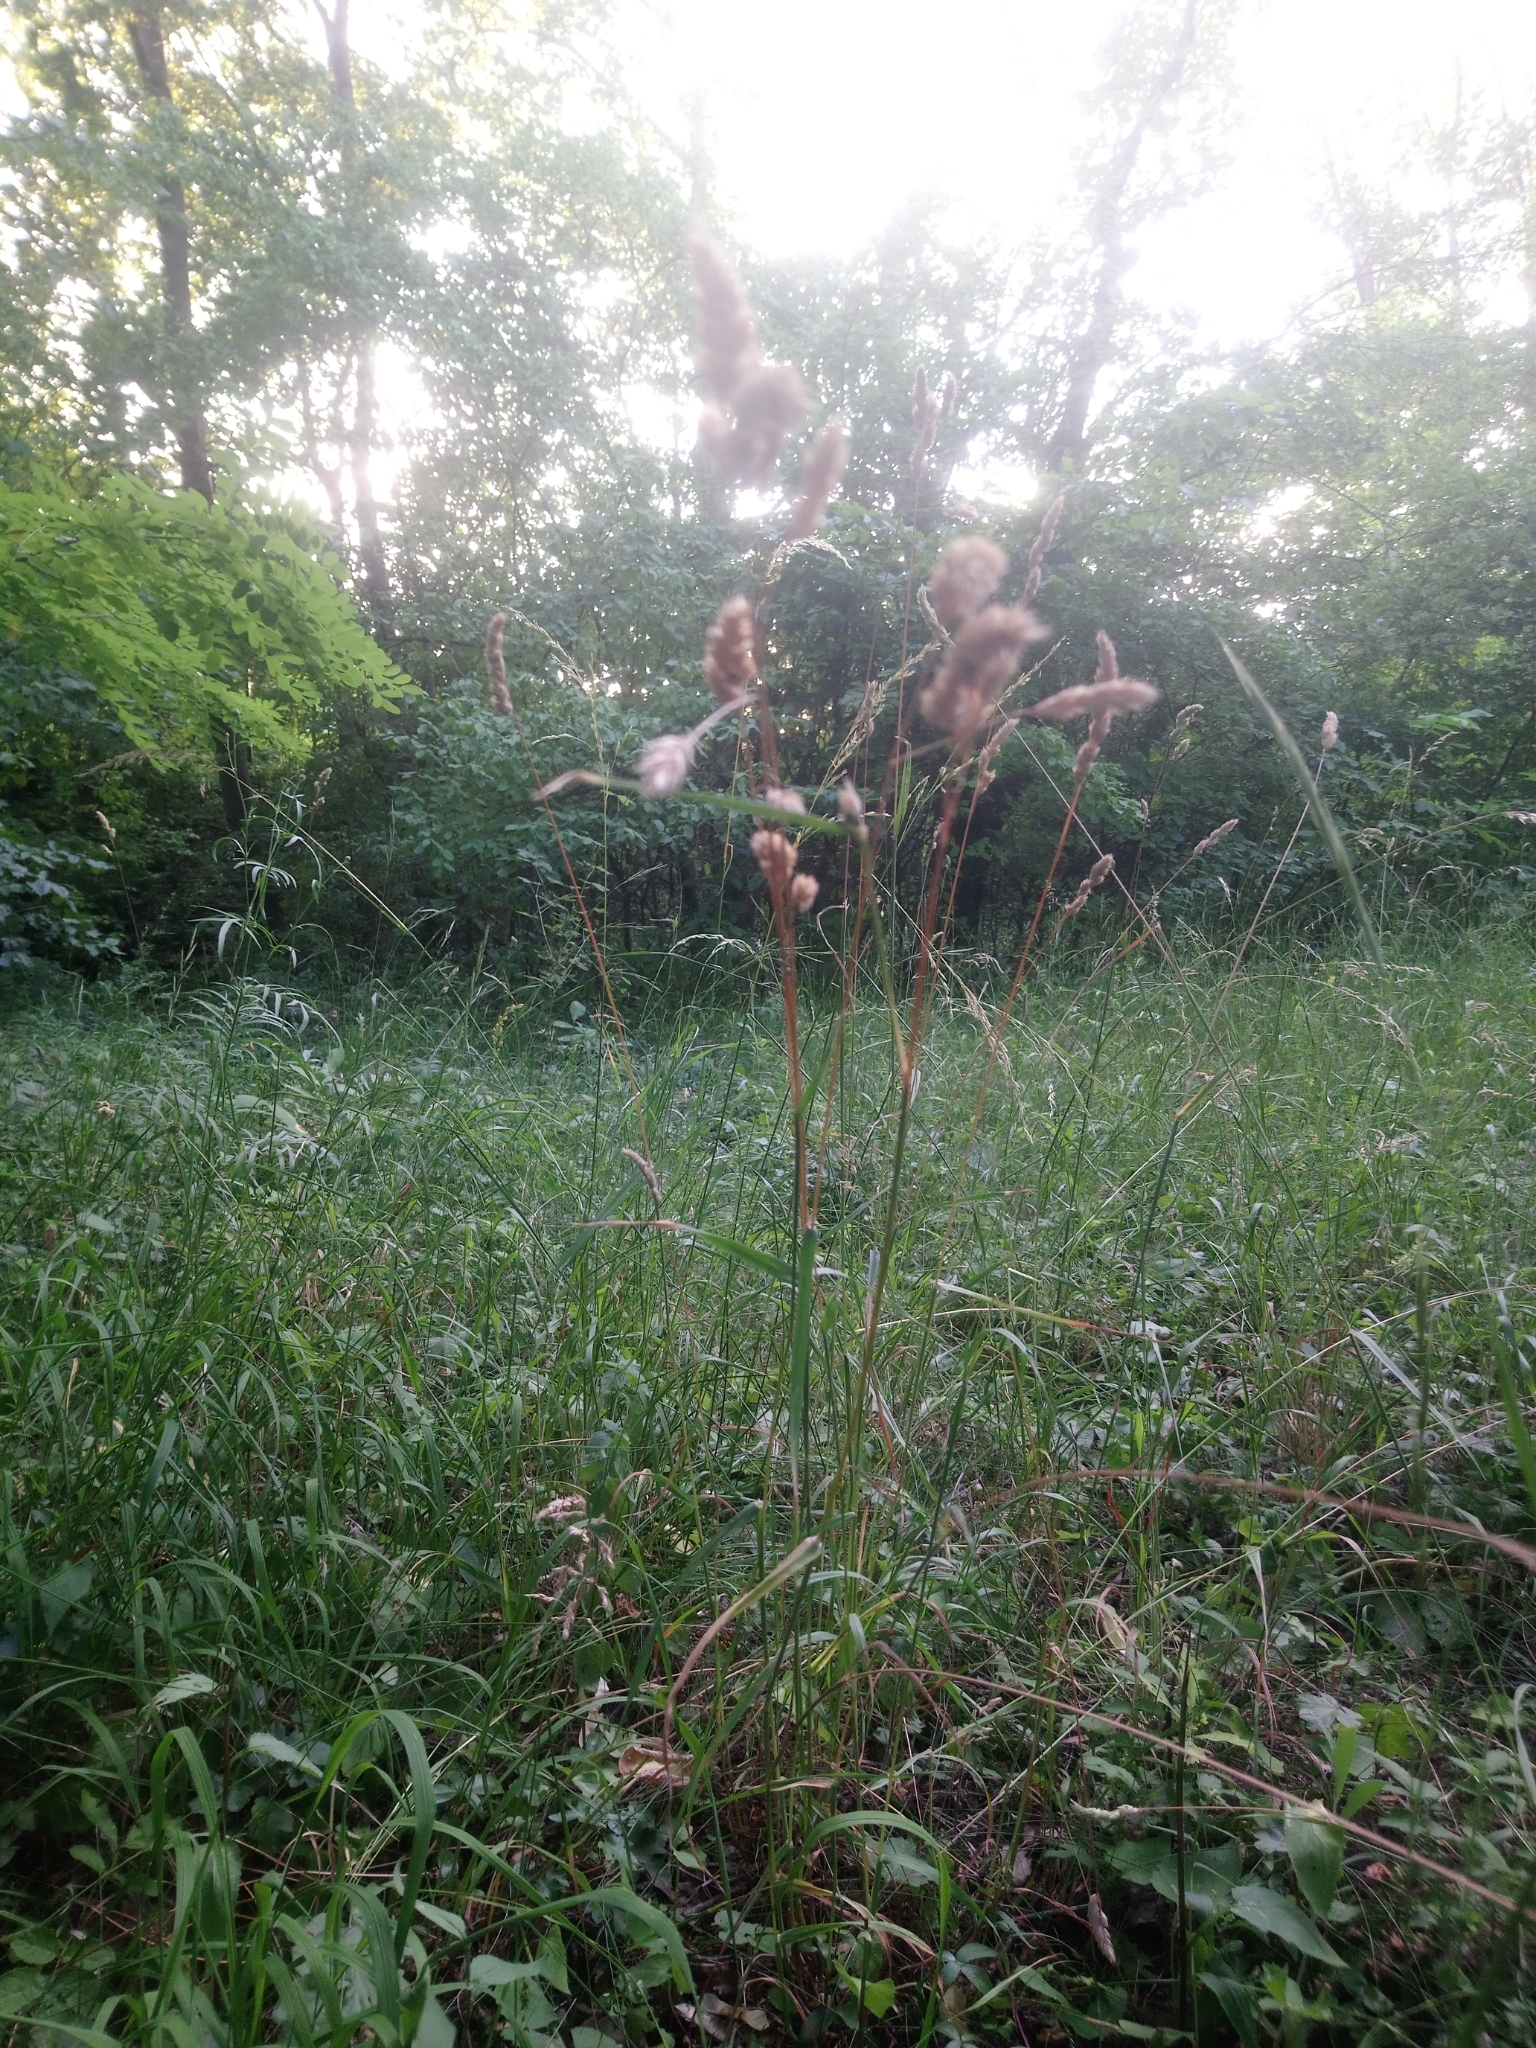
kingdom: Plantae
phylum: Tracheophyta
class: Liliopsida
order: Poales
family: Poaceae
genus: Dactylis
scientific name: Dactylis glomerata
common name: Orchardgrass
